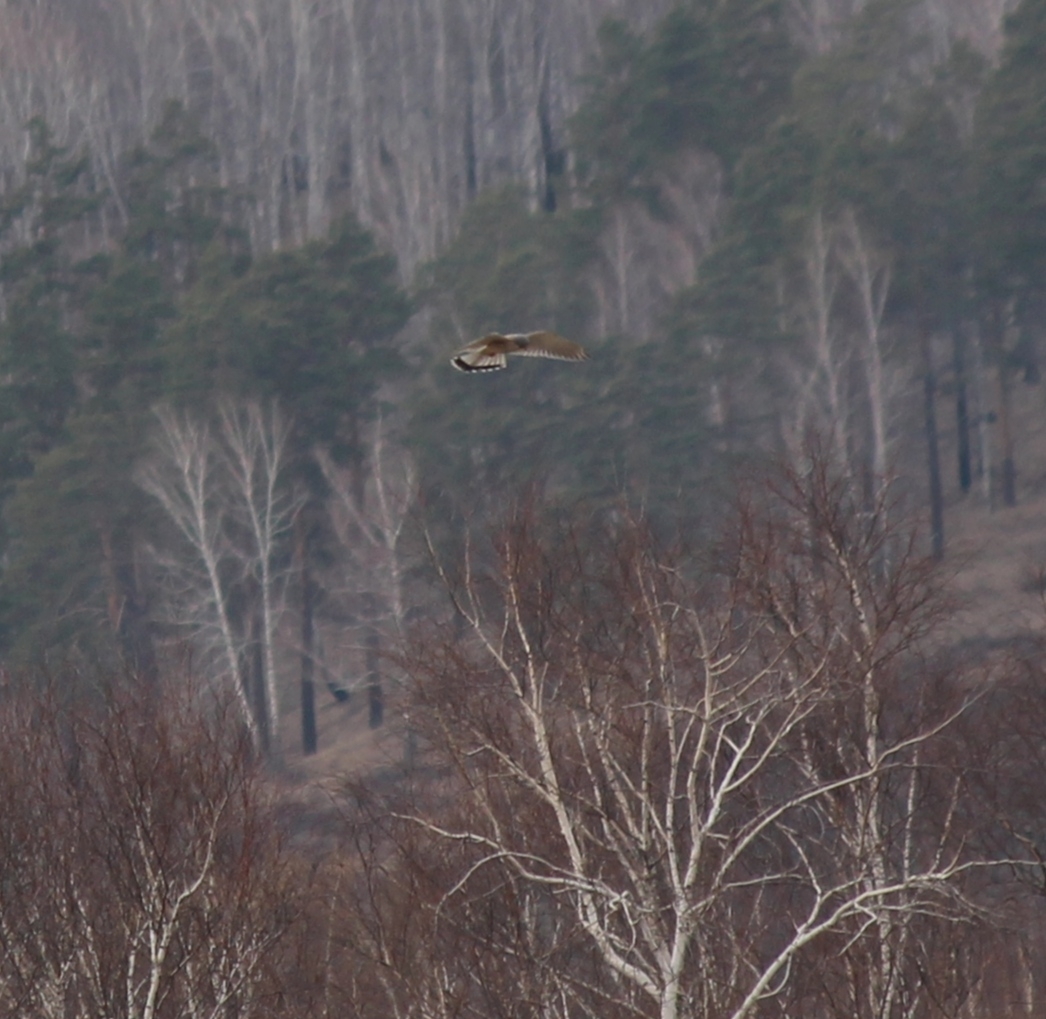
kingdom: Animalia
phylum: Chordata
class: Aves
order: Falconiformes
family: Falconidae
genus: Falco
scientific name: Falco tinnunculus
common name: Common kestrel
